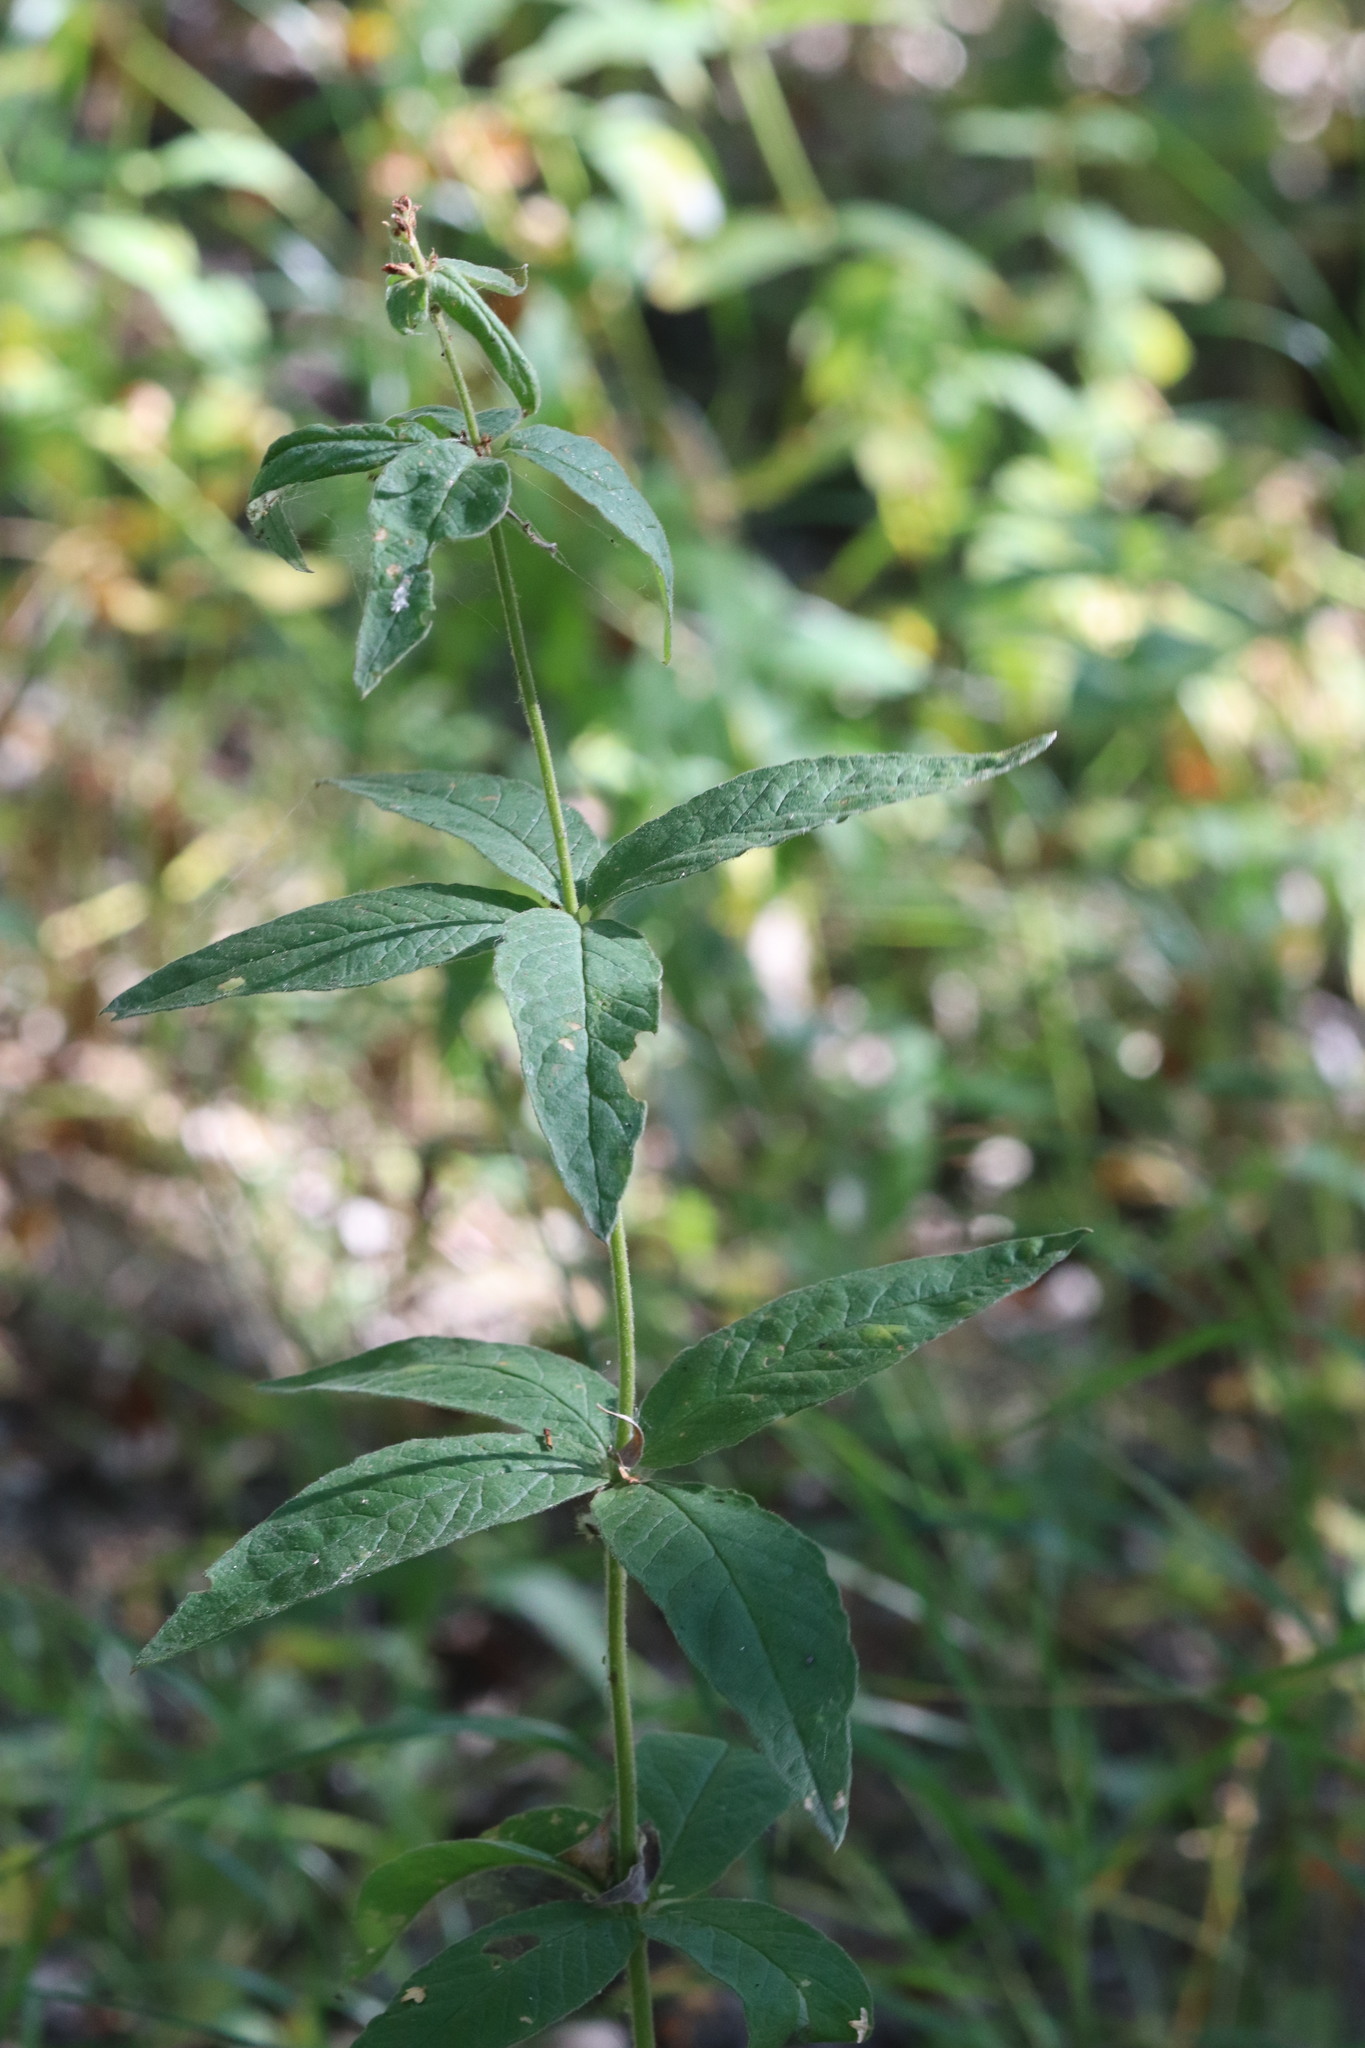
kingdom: Plantae
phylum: Tracheophyta
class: Magnoliopsida
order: Ericales
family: Primulaceae
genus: Lysimachia
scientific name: Lysimachia vulgaris
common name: Yellow loosestrife
